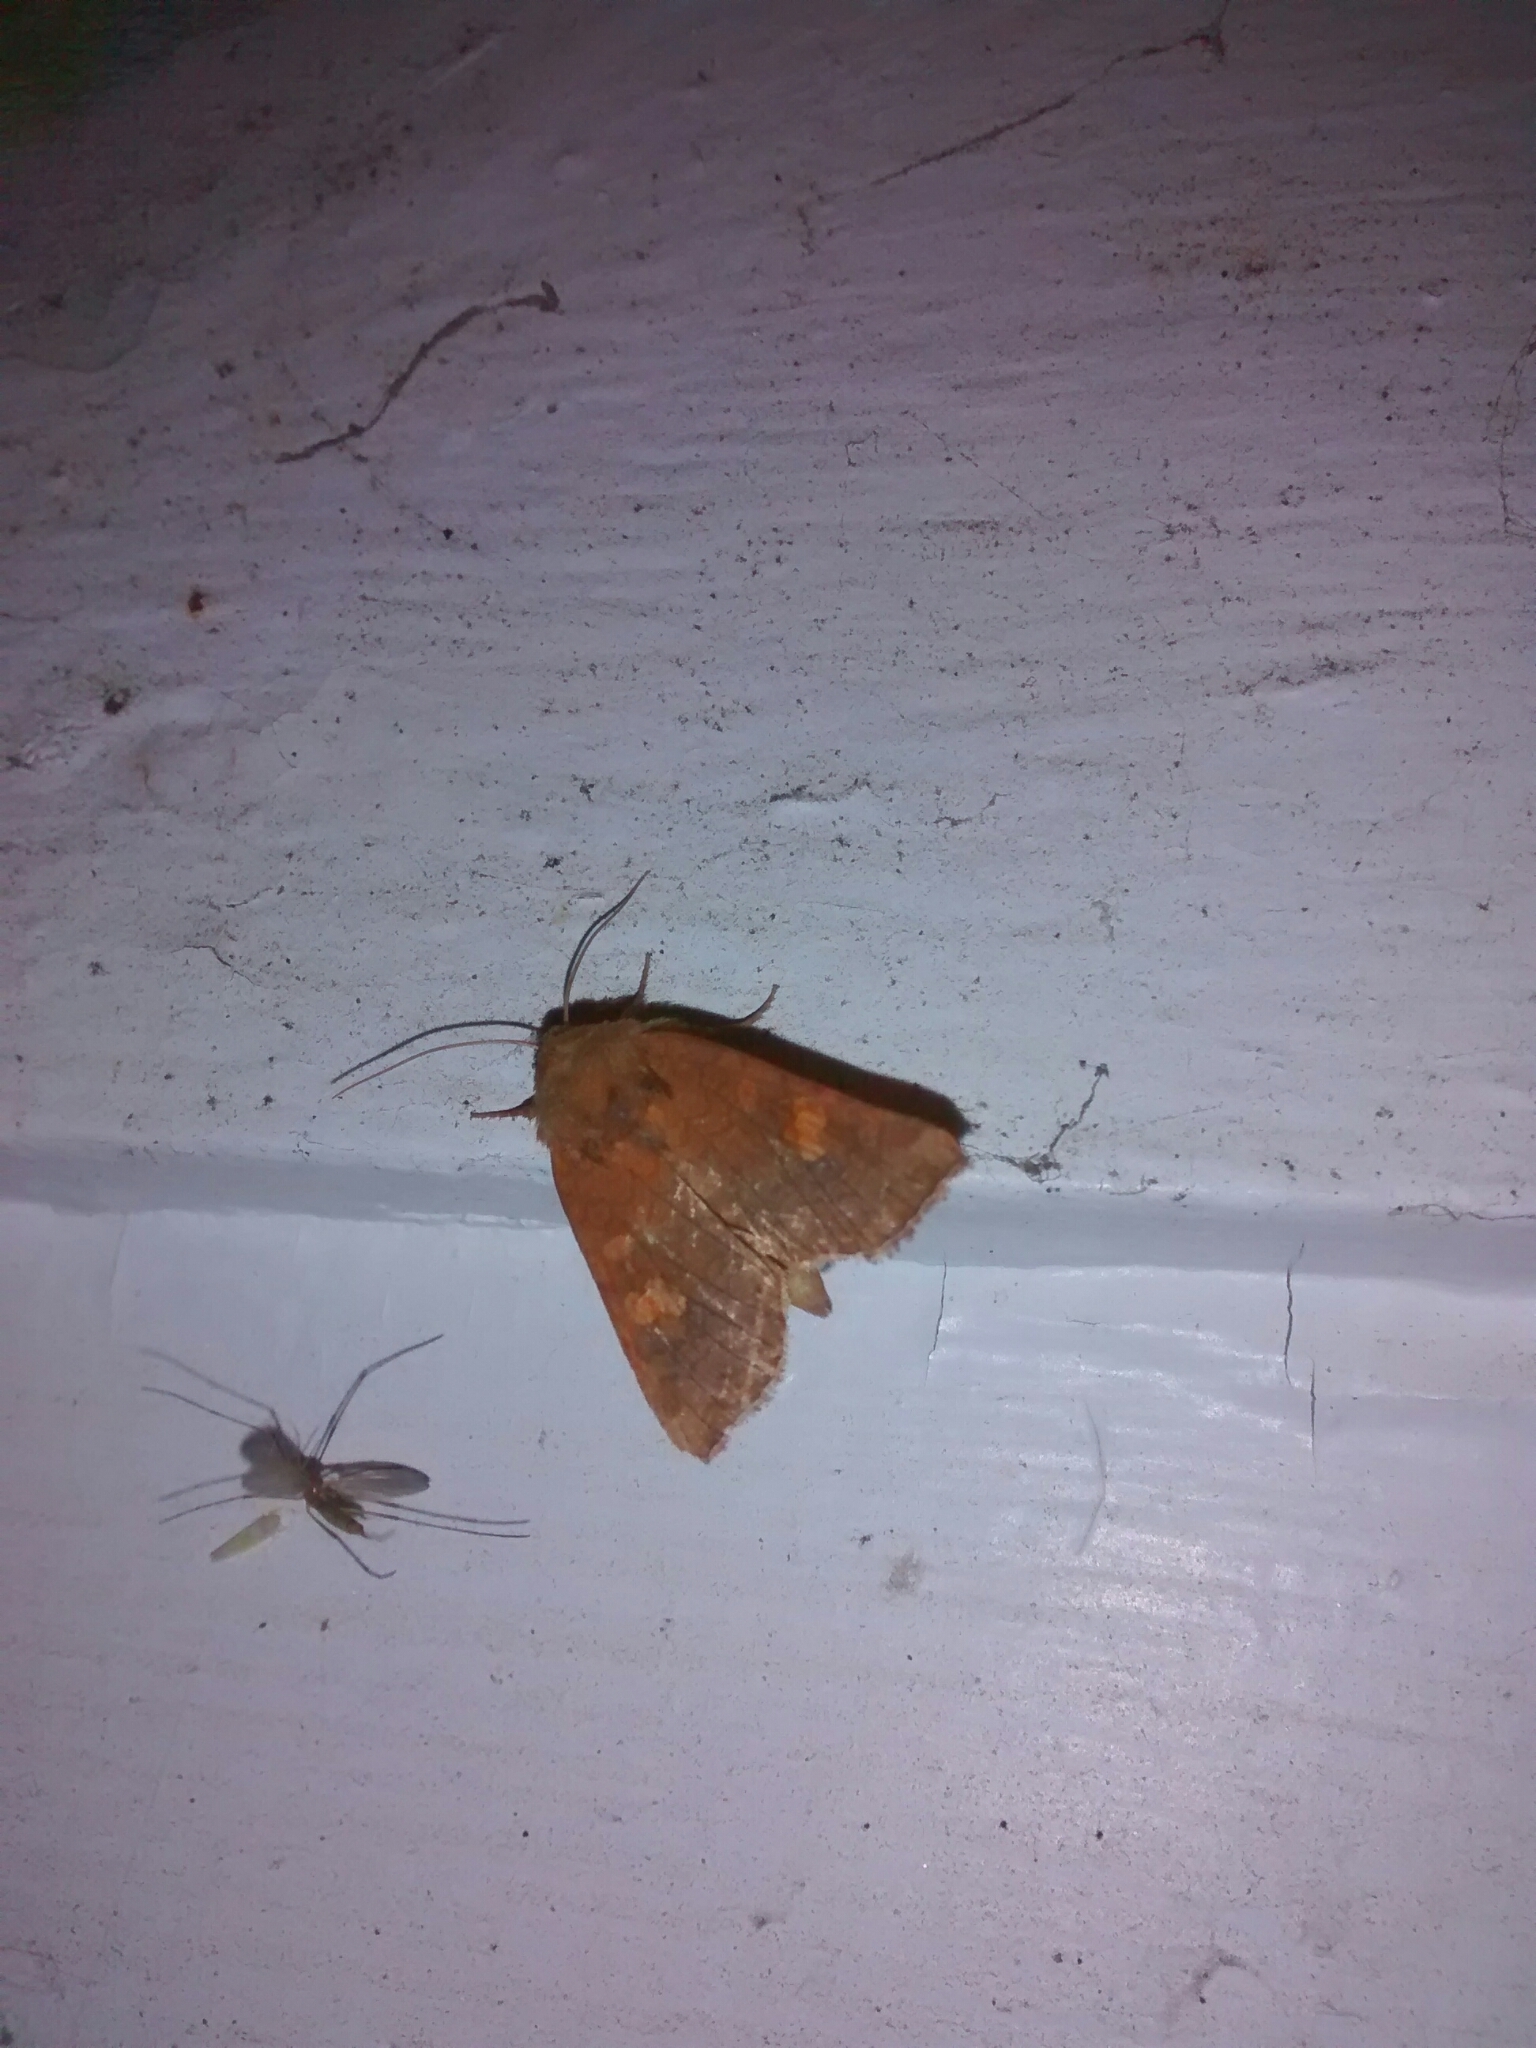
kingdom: Animalia
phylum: Arthropoda
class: Insecta
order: Lepidoptera
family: Noctuidae
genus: Amphipoea
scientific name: Amphipoea americana
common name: American ear moth
